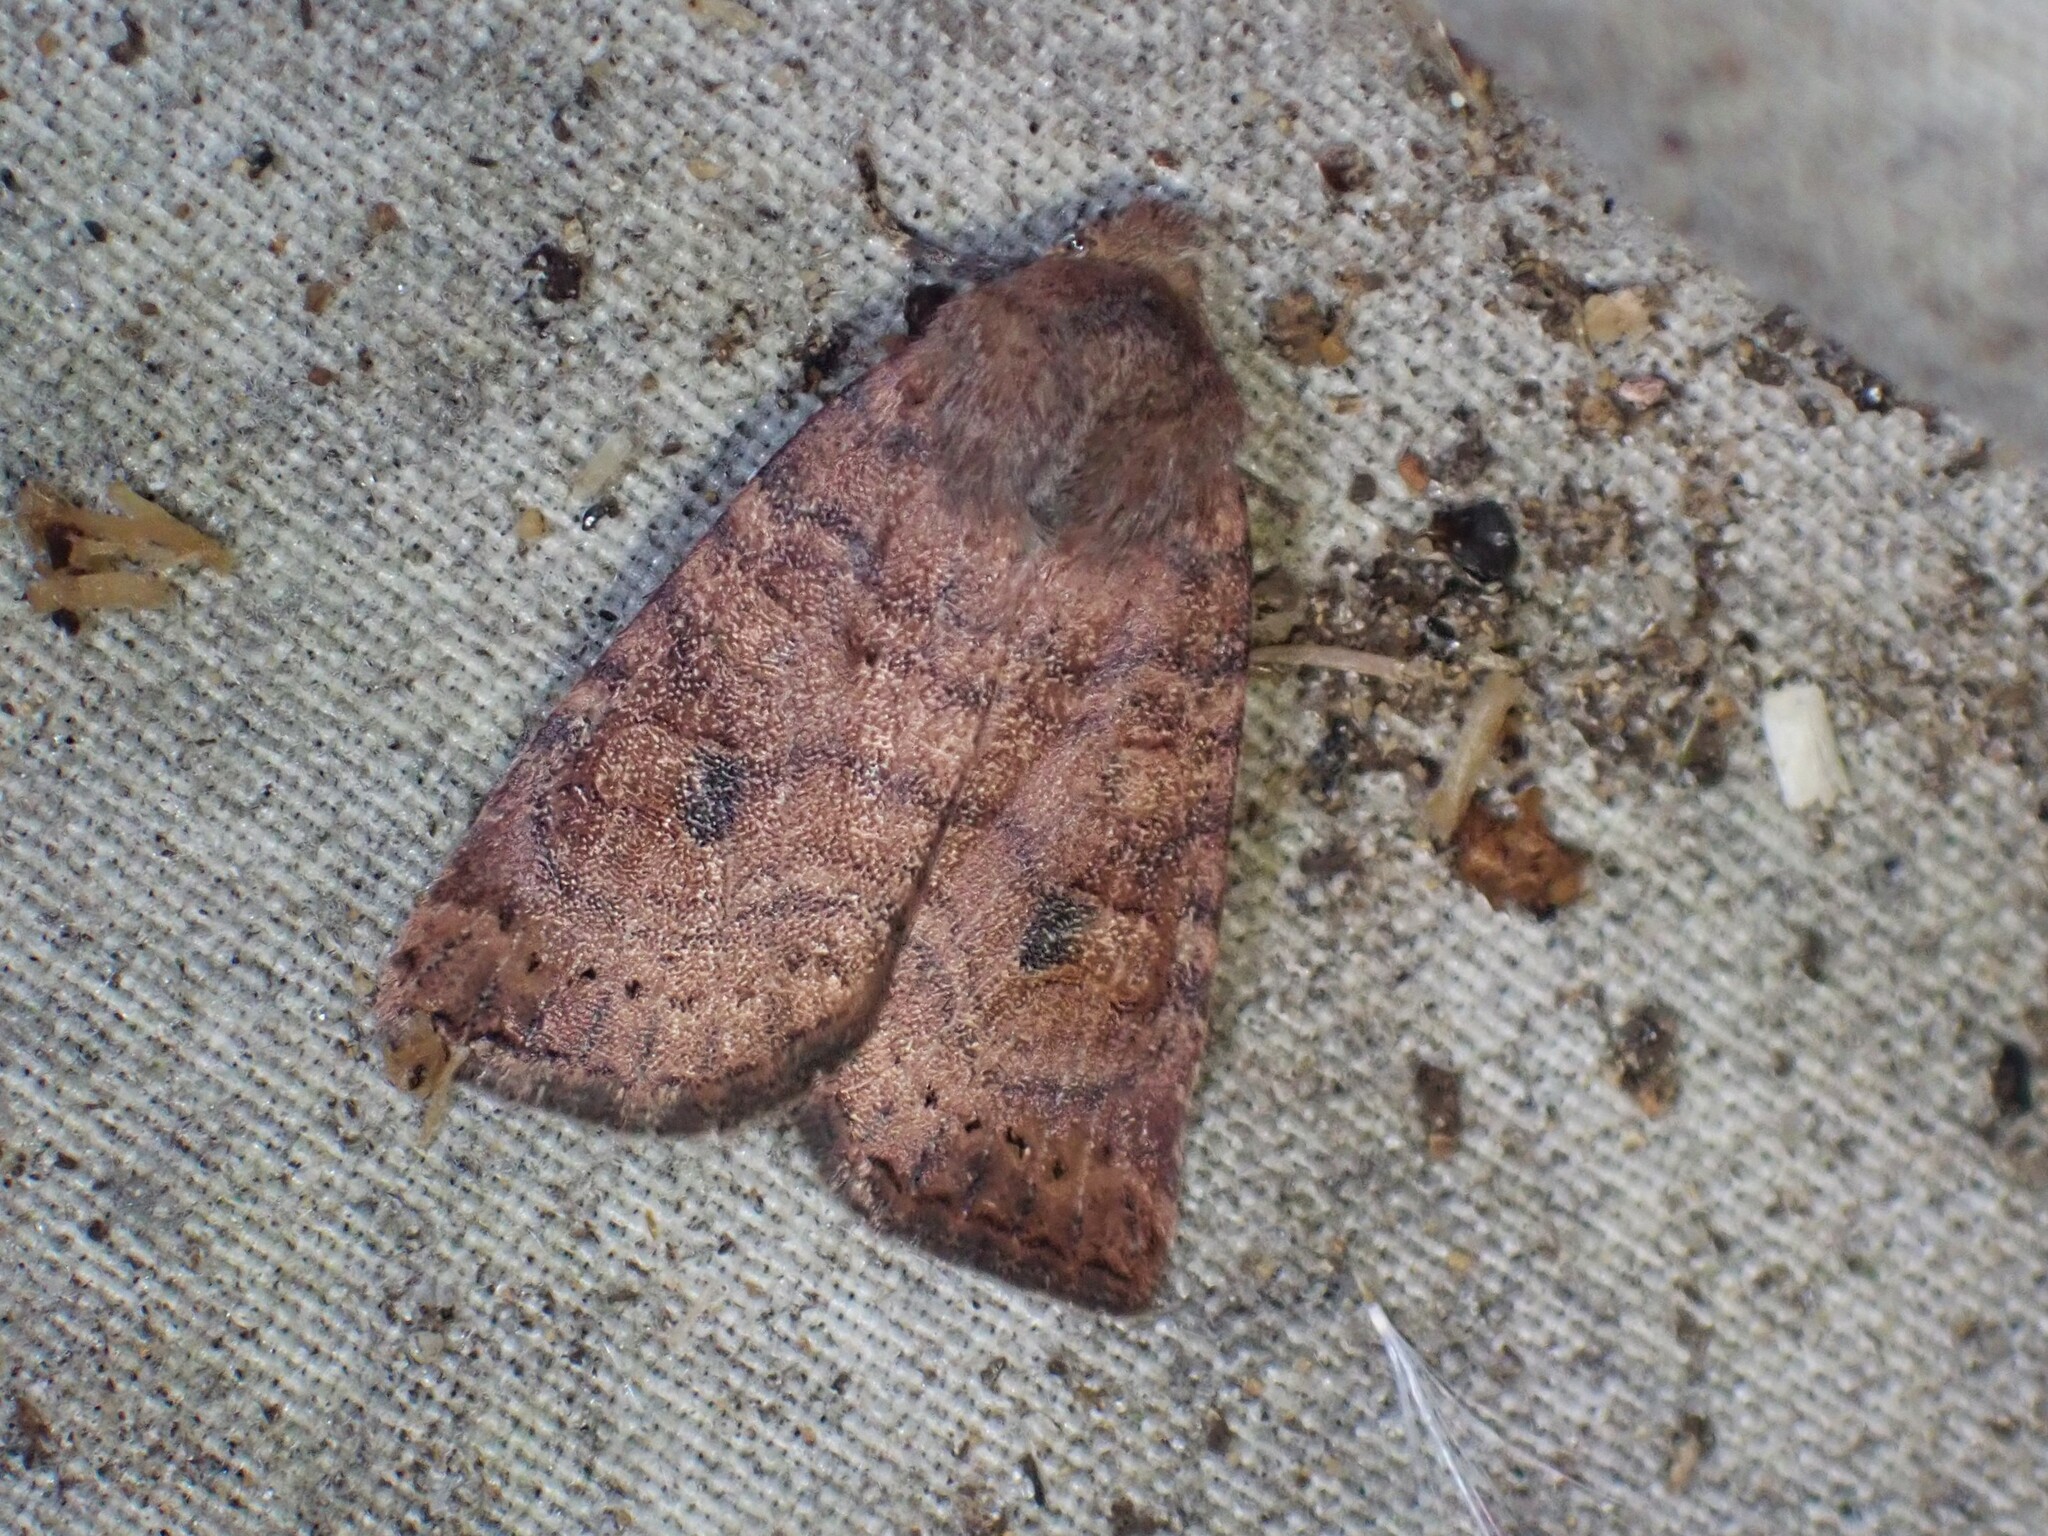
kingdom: Animalia
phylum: Arthropoda
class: Insecta
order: Lepidoptera
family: Noctuidae
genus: Anathix
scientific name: Anathix puta
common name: Puta sallow
